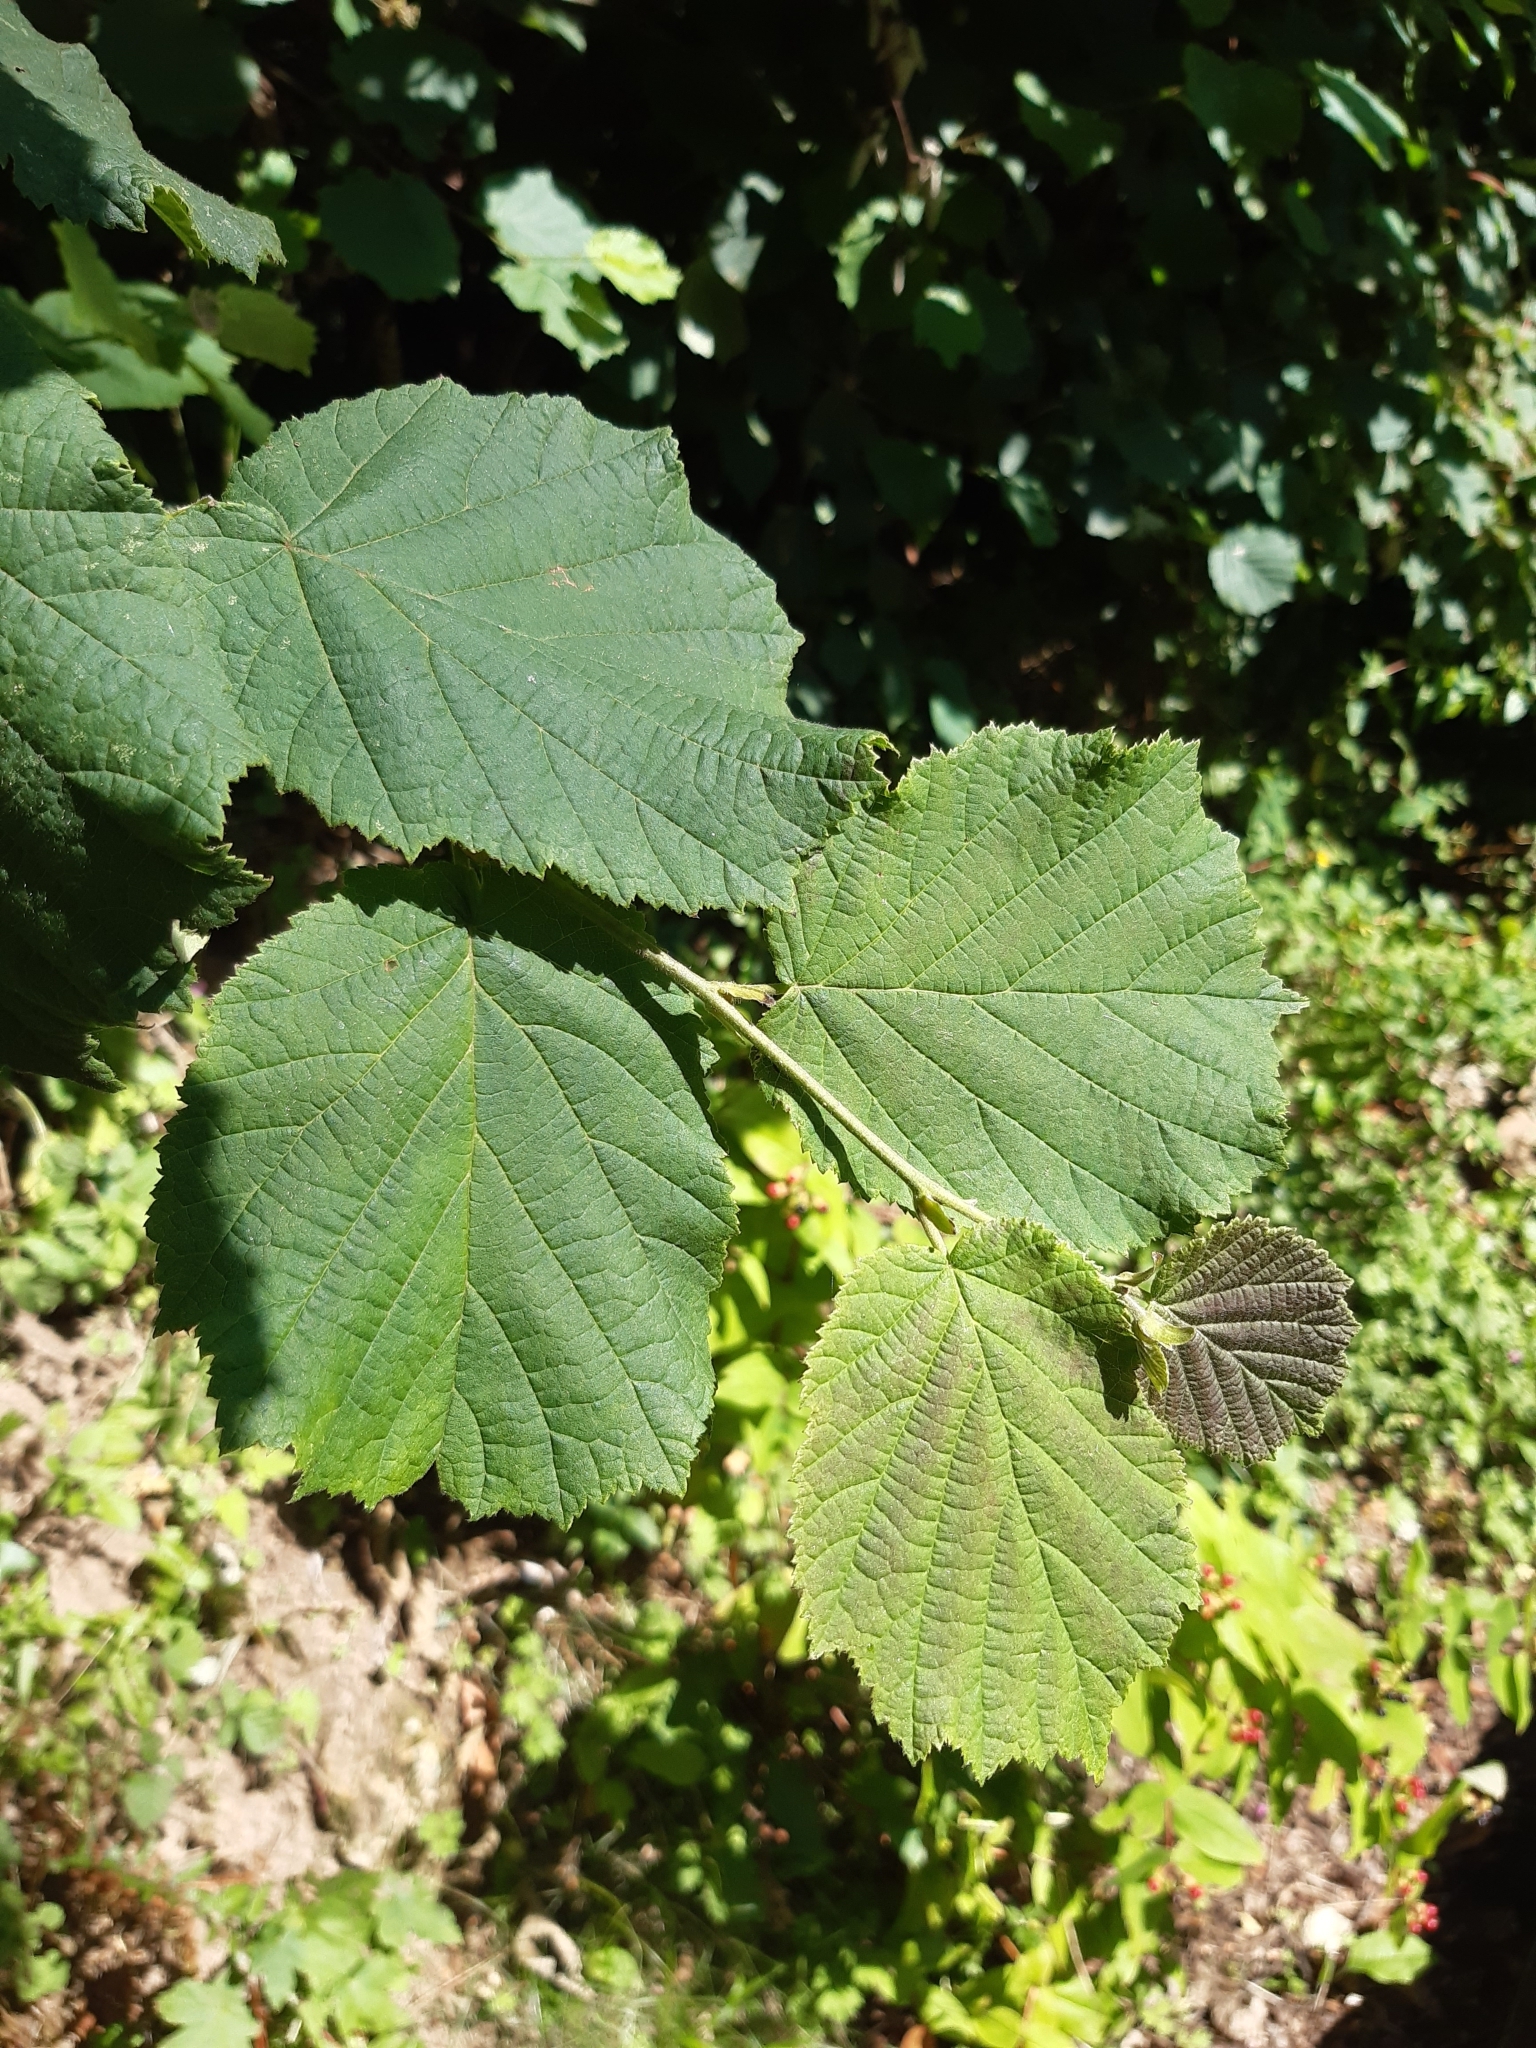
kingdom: Plantae
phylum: Tracheophyta
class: Magnoliopsida
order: Fagales
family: Betulaceae
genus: Corylus
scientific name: Corylus avellana
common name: European hazel
